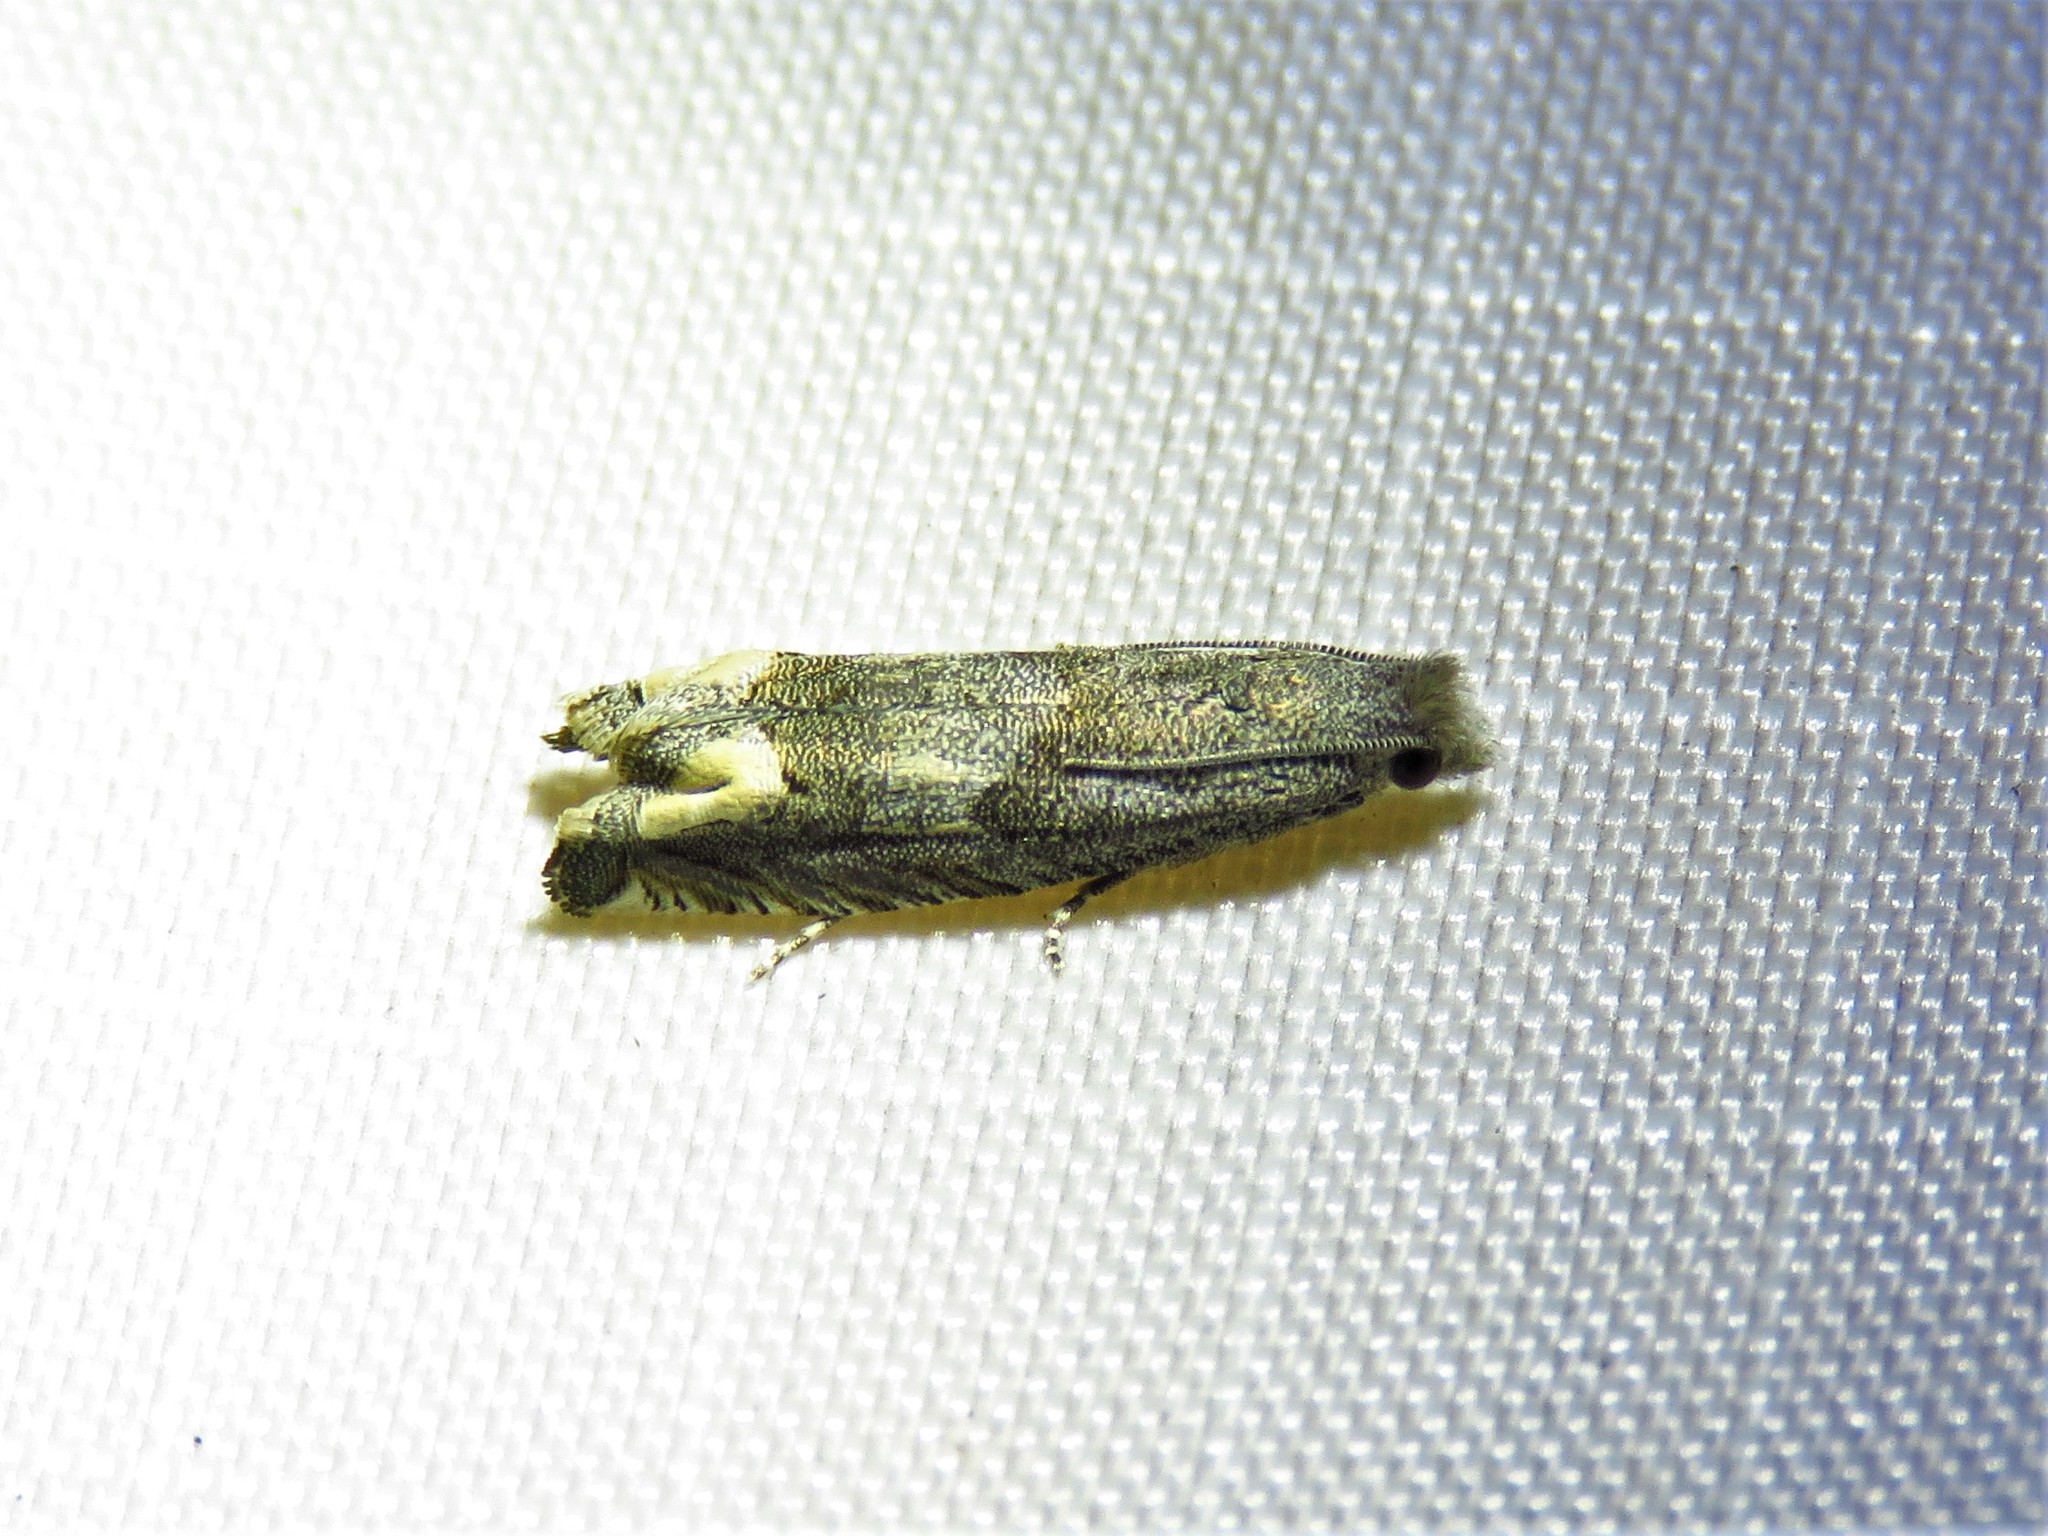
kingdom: Animalia
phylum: Arthropoda
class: Insecta
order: Lepidoptera
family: Tortricidae
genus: Epiblema
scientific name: Epiblema strenuana
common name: Ragweed borer moth
